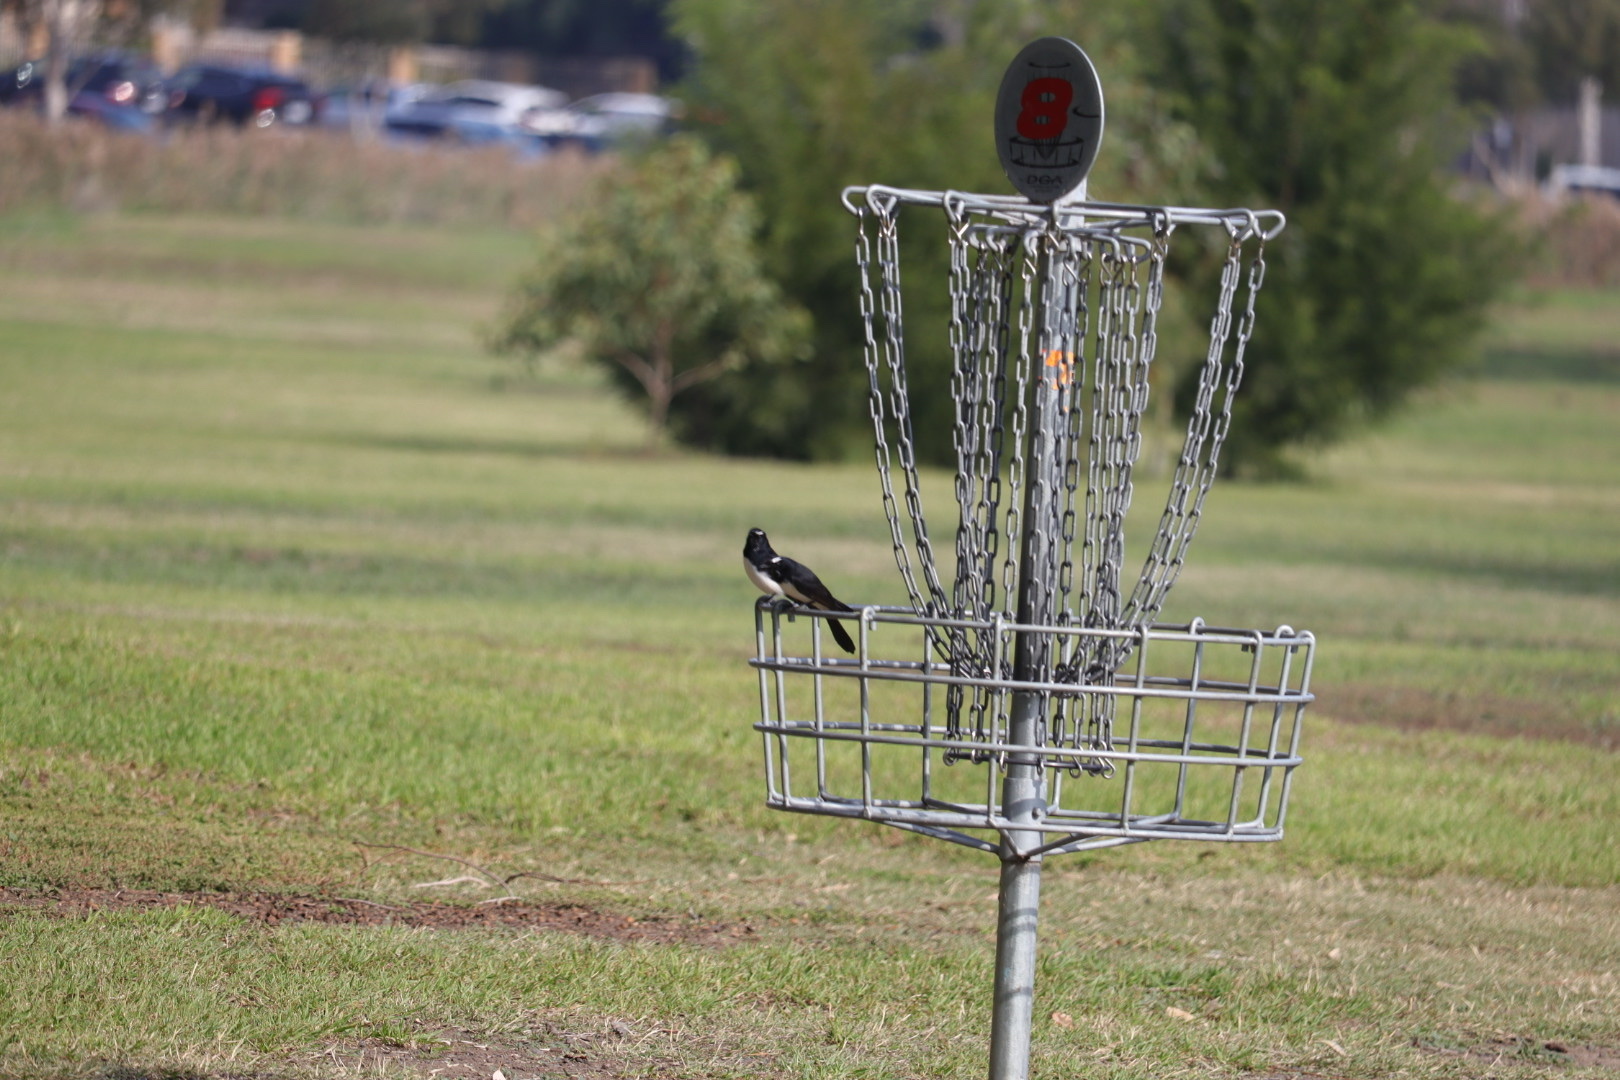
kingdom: Animalia
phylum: Chordata
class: Aves
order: Passeriformes
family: Rhipiduridae
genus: Rhipidura
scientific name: Rhipidura leucophrys
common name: Willie wagtail
